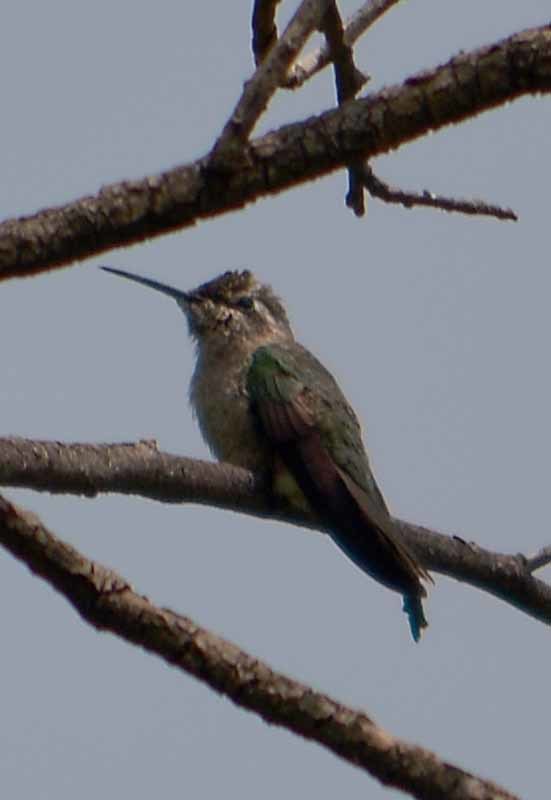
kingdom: Animalia
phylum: Chordata
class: Aves
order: Apodiformes
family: Trochilidae
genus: Cynanthus
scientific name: Cynanthus latirostris
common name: Broad-billed hummingbird
